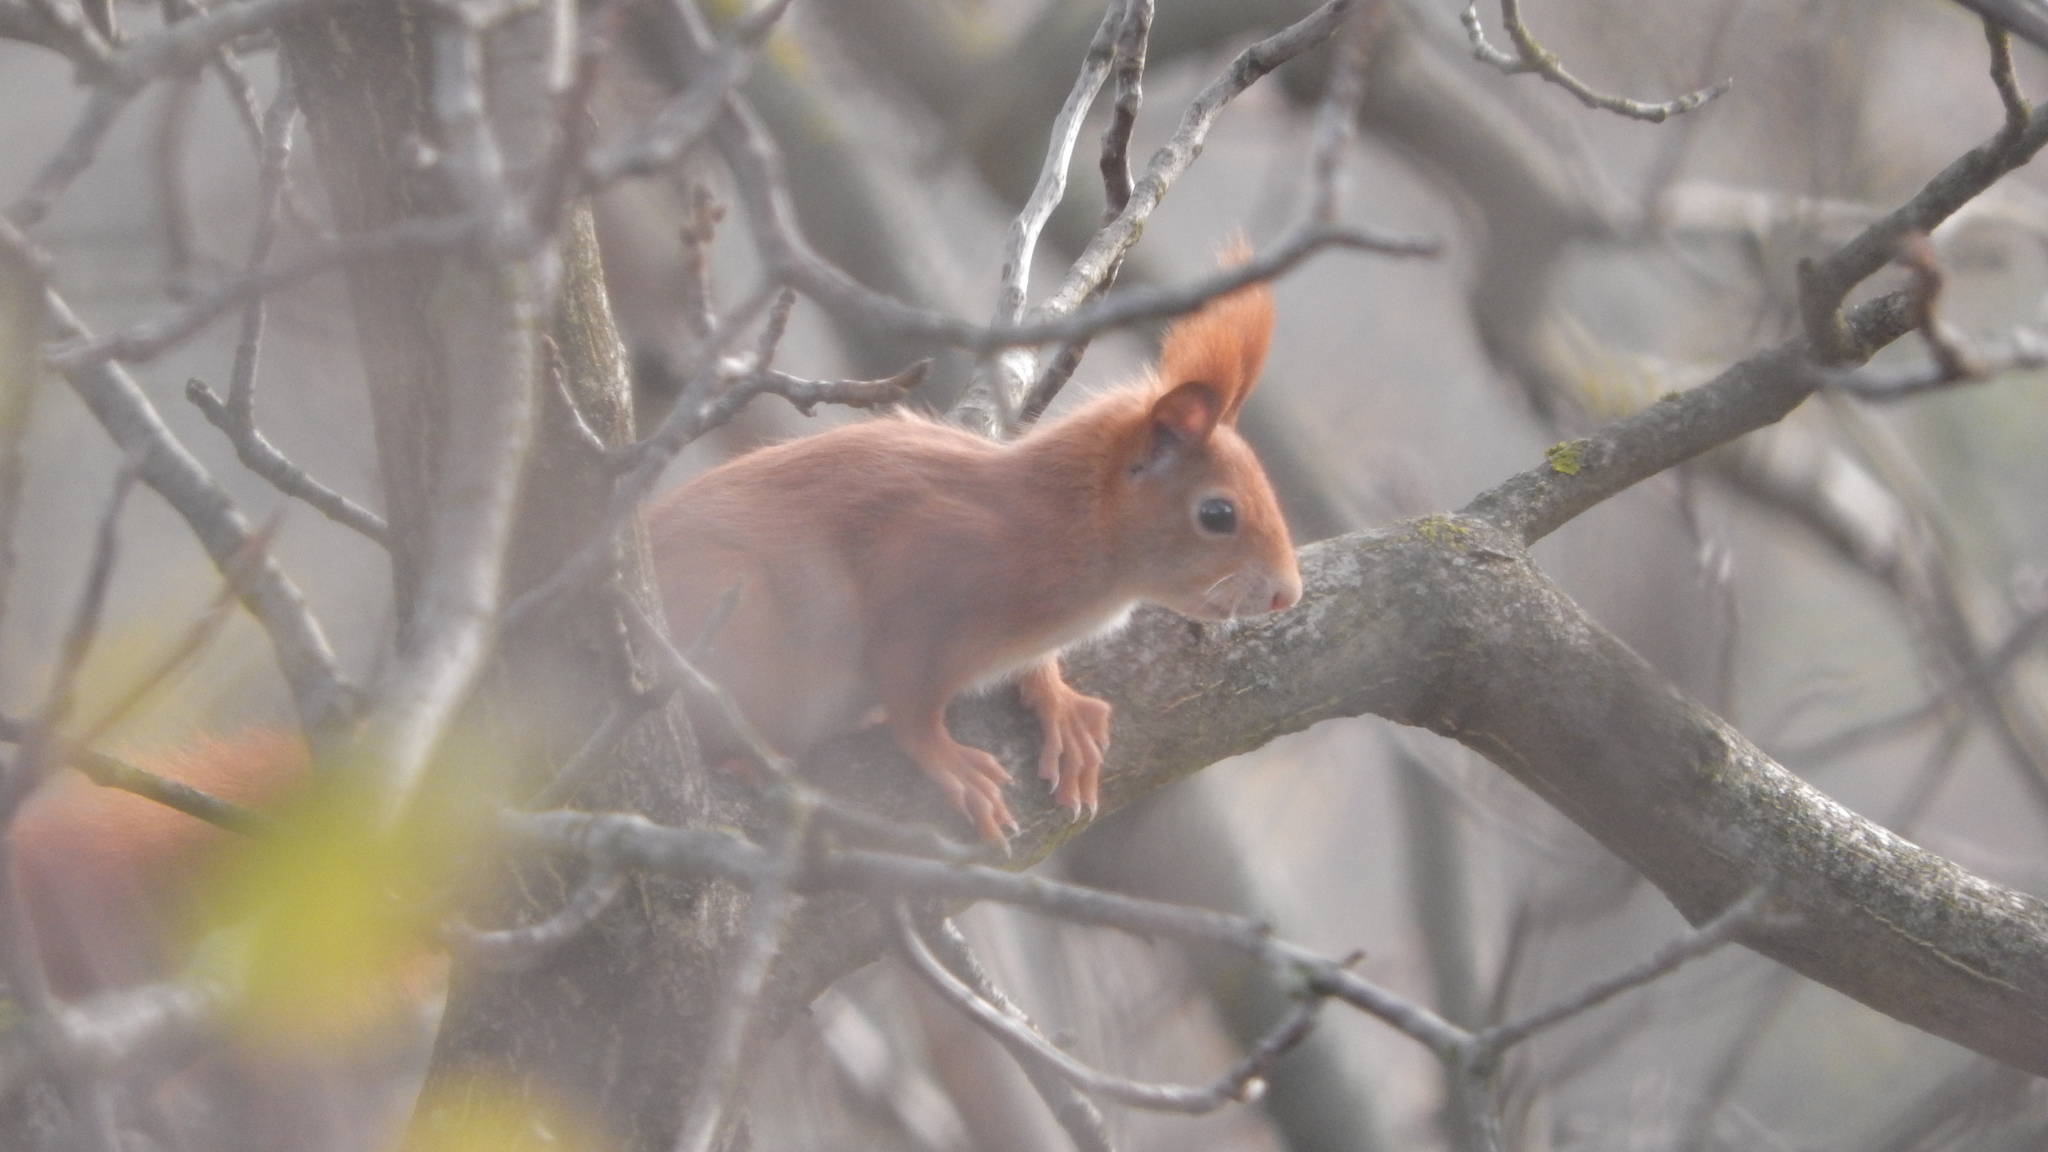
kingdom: Animalia
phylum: Chordata
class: Mammalia
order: Rodentia
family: Sciuridae
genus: Sciurus
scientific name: Sciurus vulgaris
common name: Eurasian red squirrel
